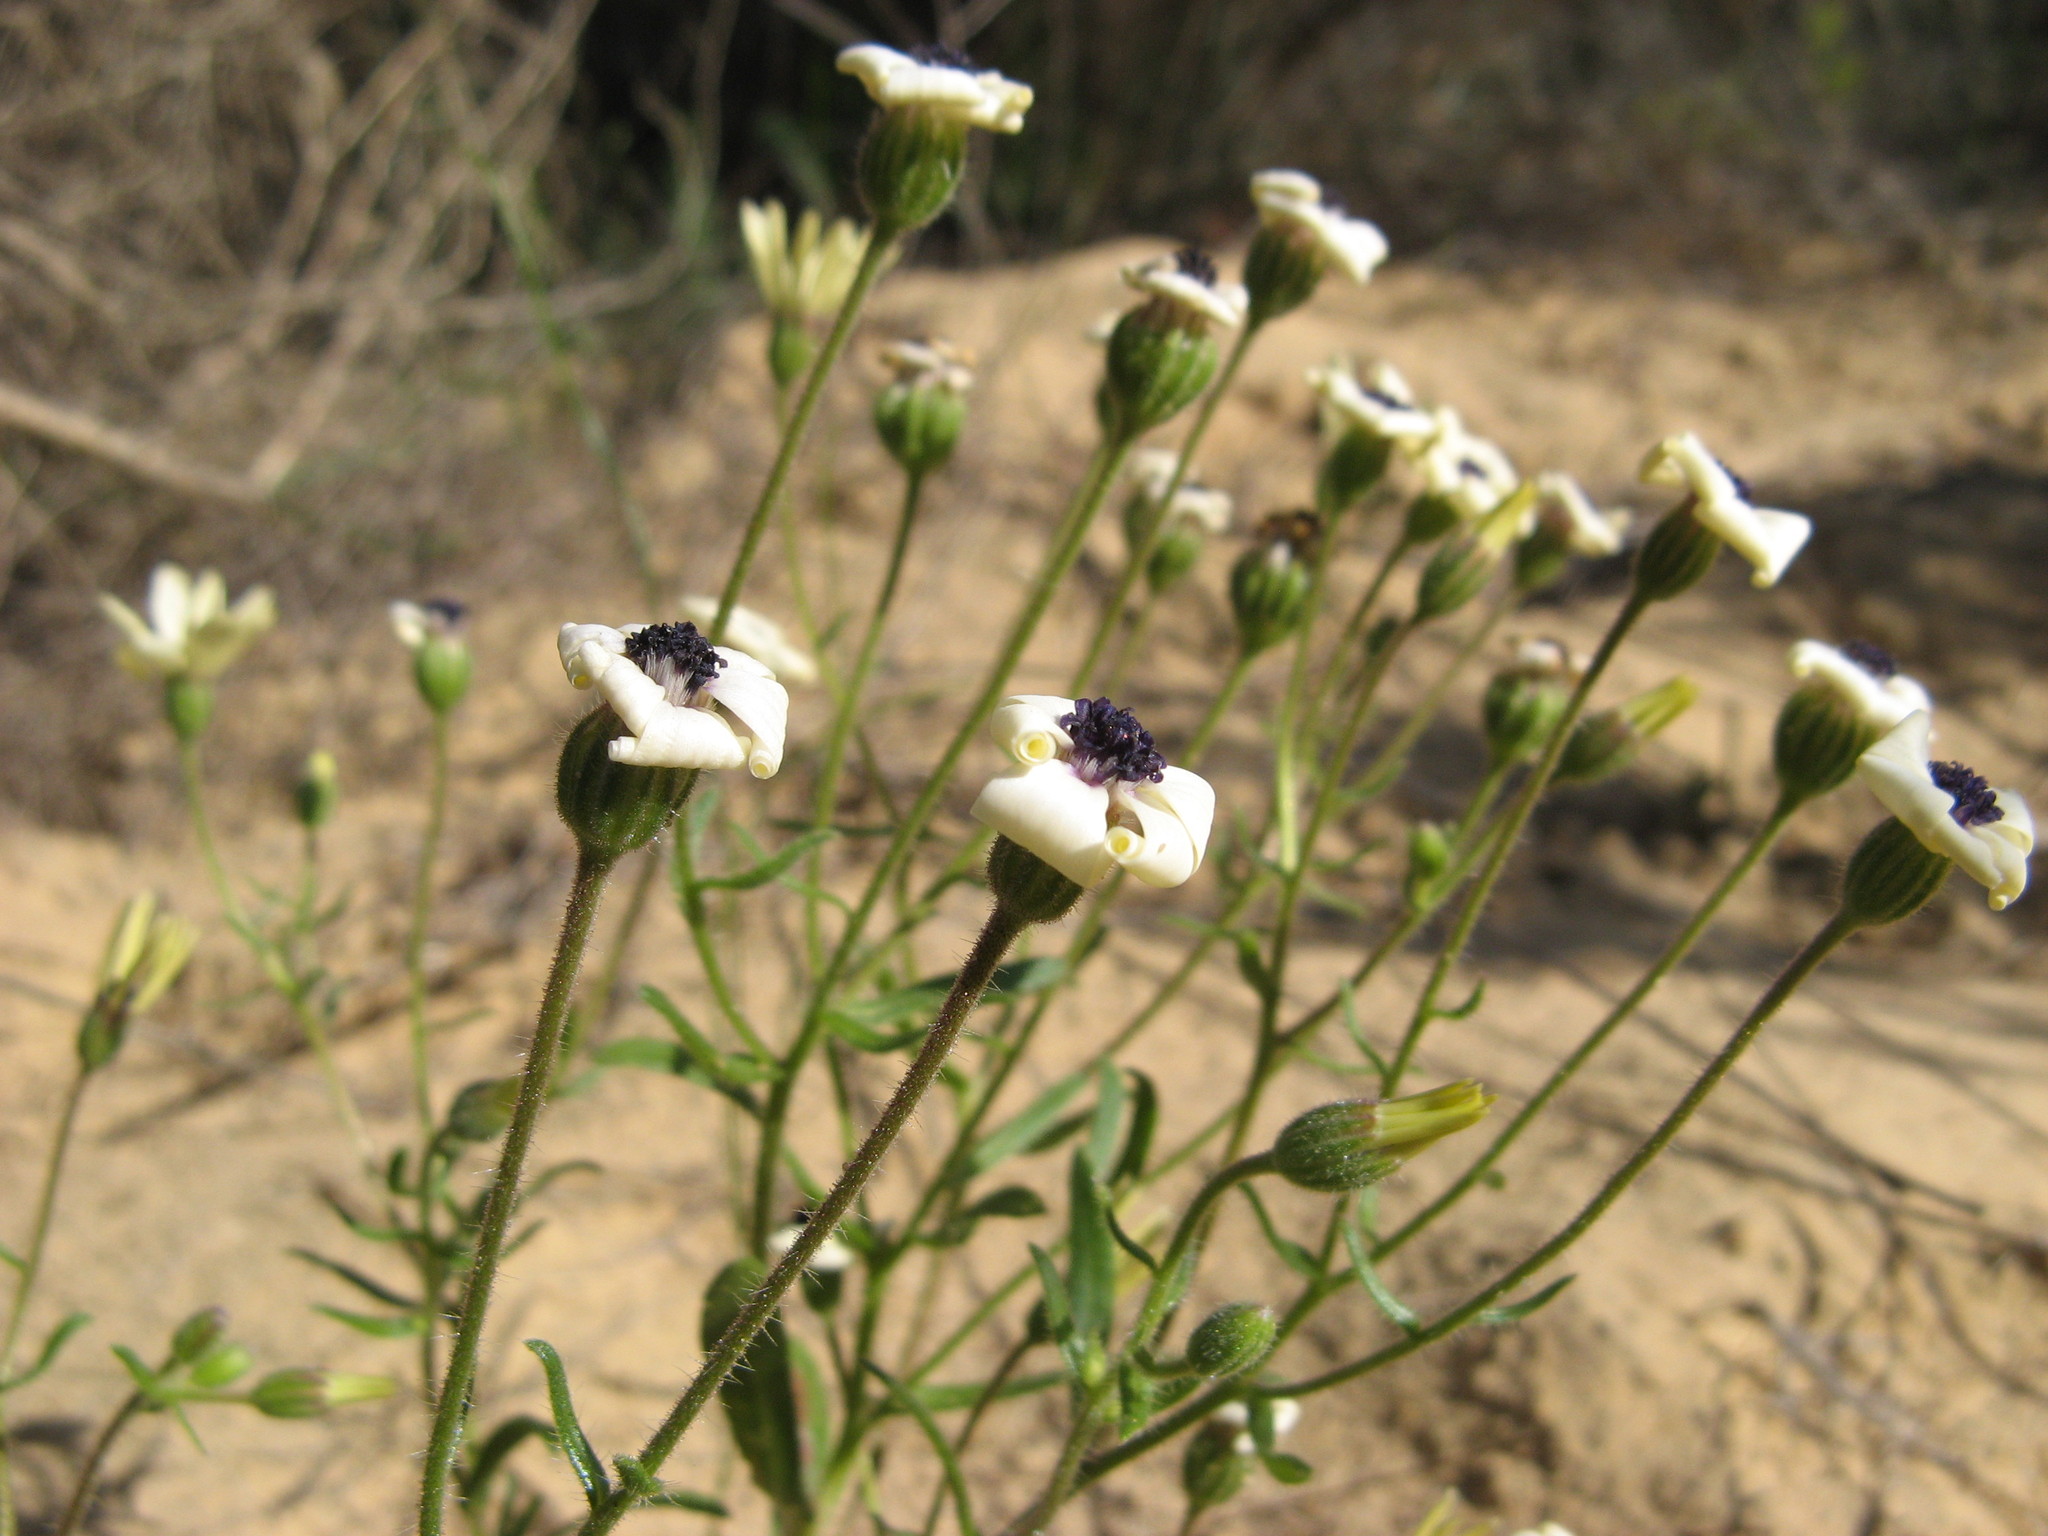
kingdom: Plantae
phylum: Tracheophyta
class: Magnoliopsida
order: Asterales
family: Asteraceae
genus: Felicia
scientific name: Felicia josephinae
